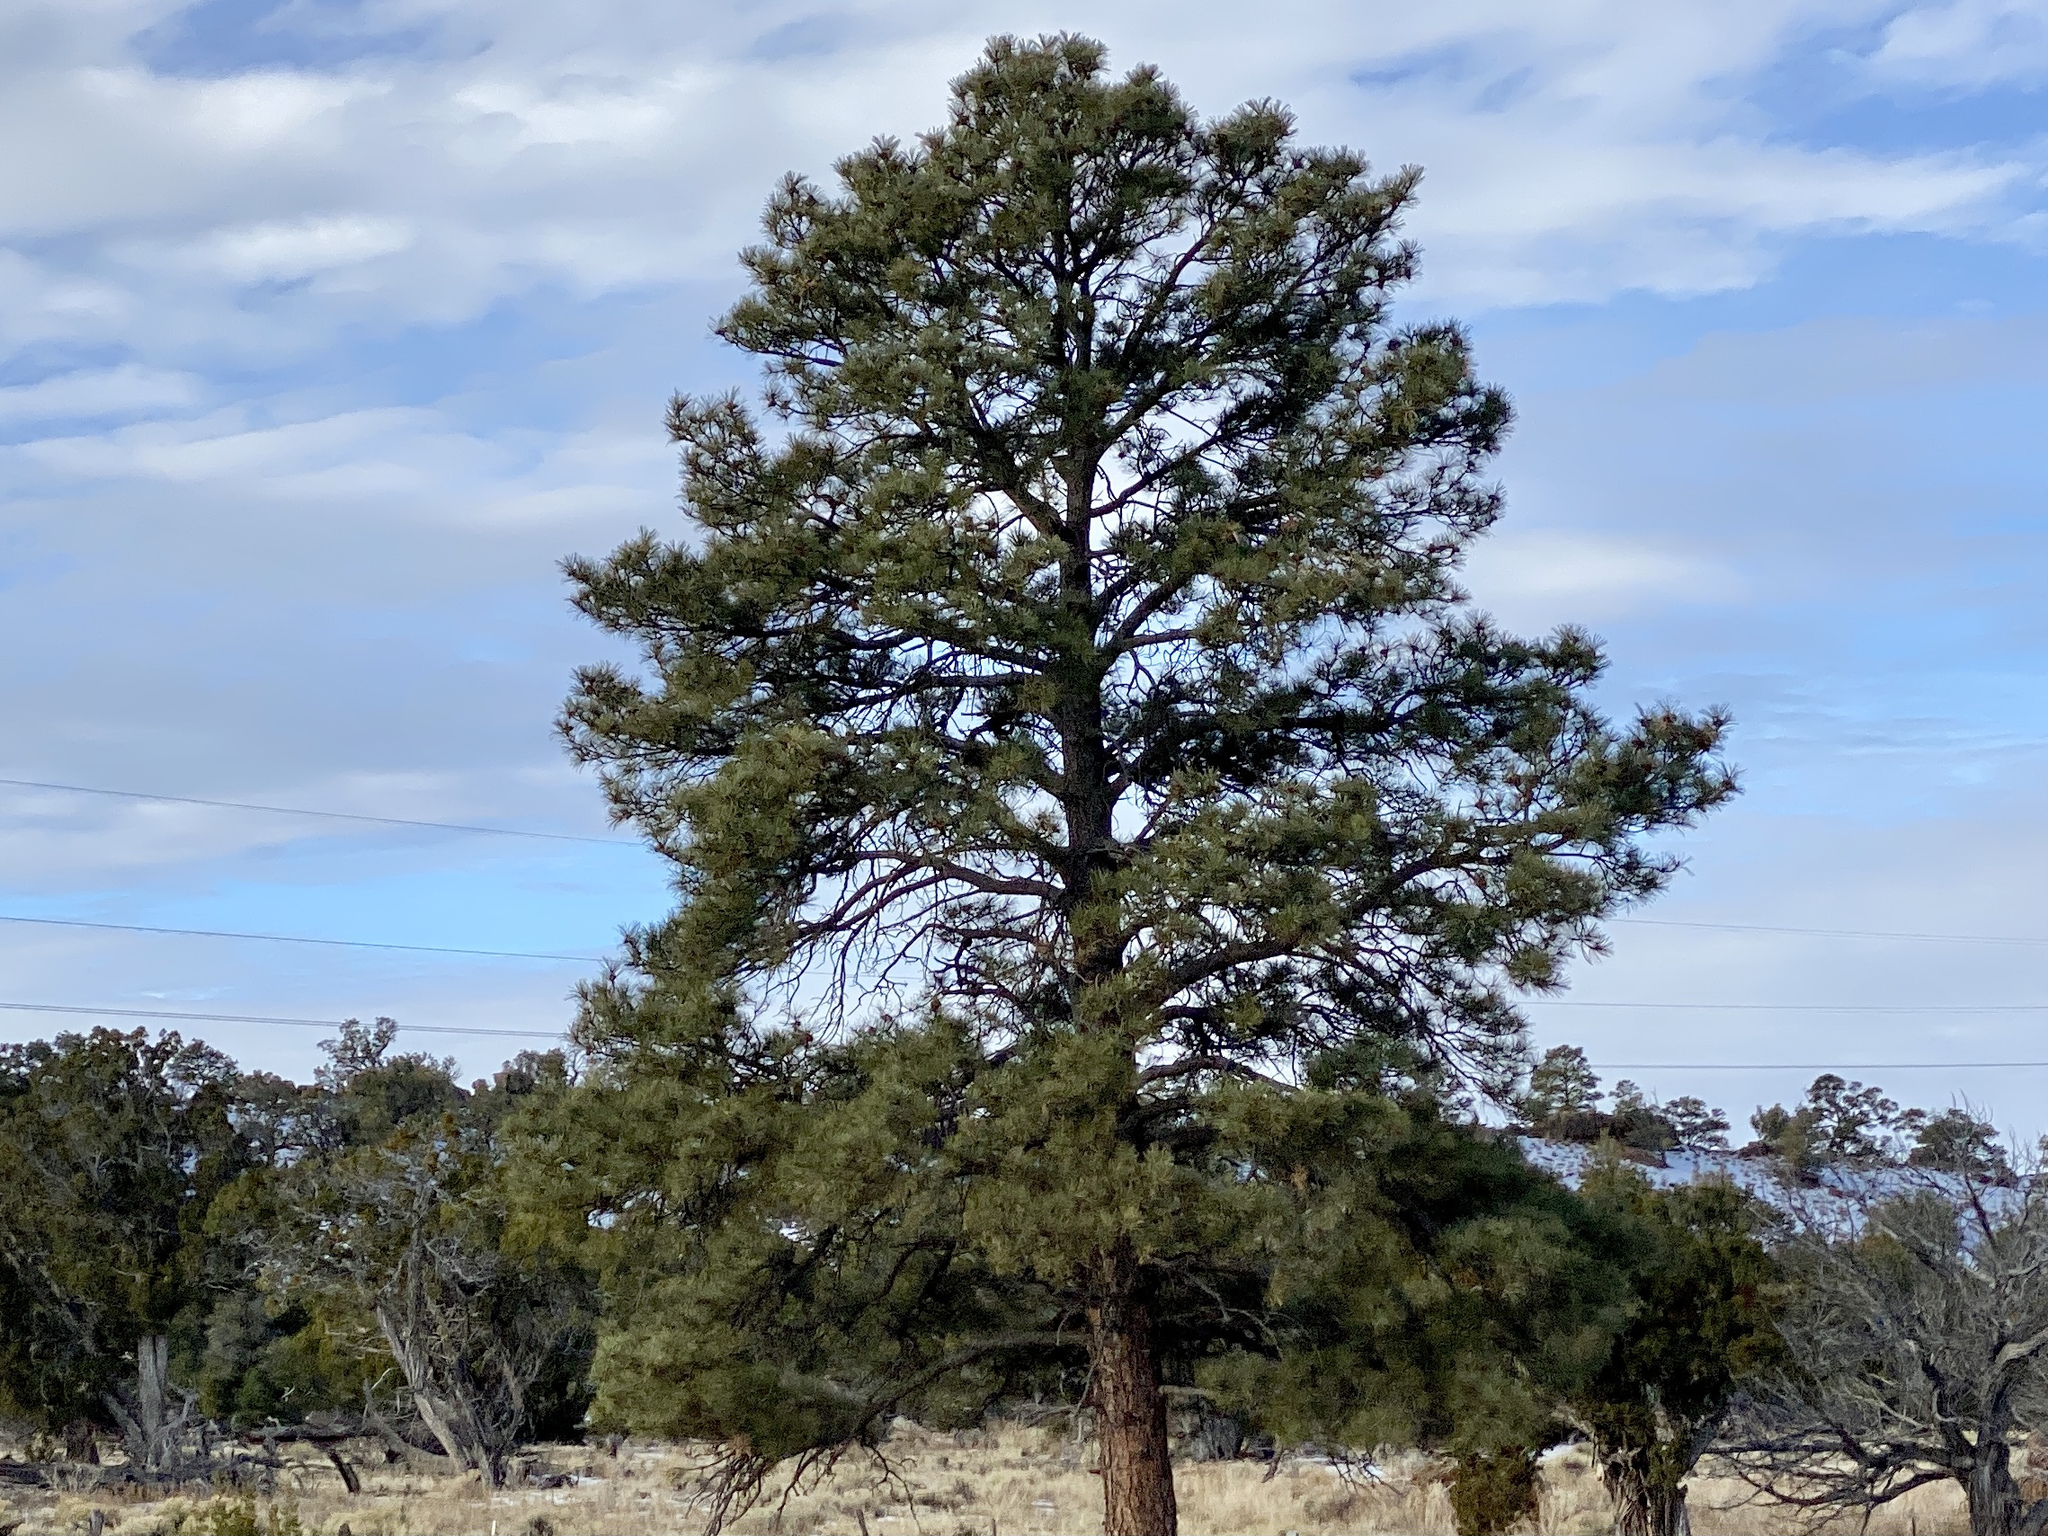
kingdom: Plantae
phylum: Tracheophyta
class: Pinopsida
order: Pinales
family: Pinaceae
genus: Pinus
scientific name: Pinus ponderosa
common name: Western yellow-pine
